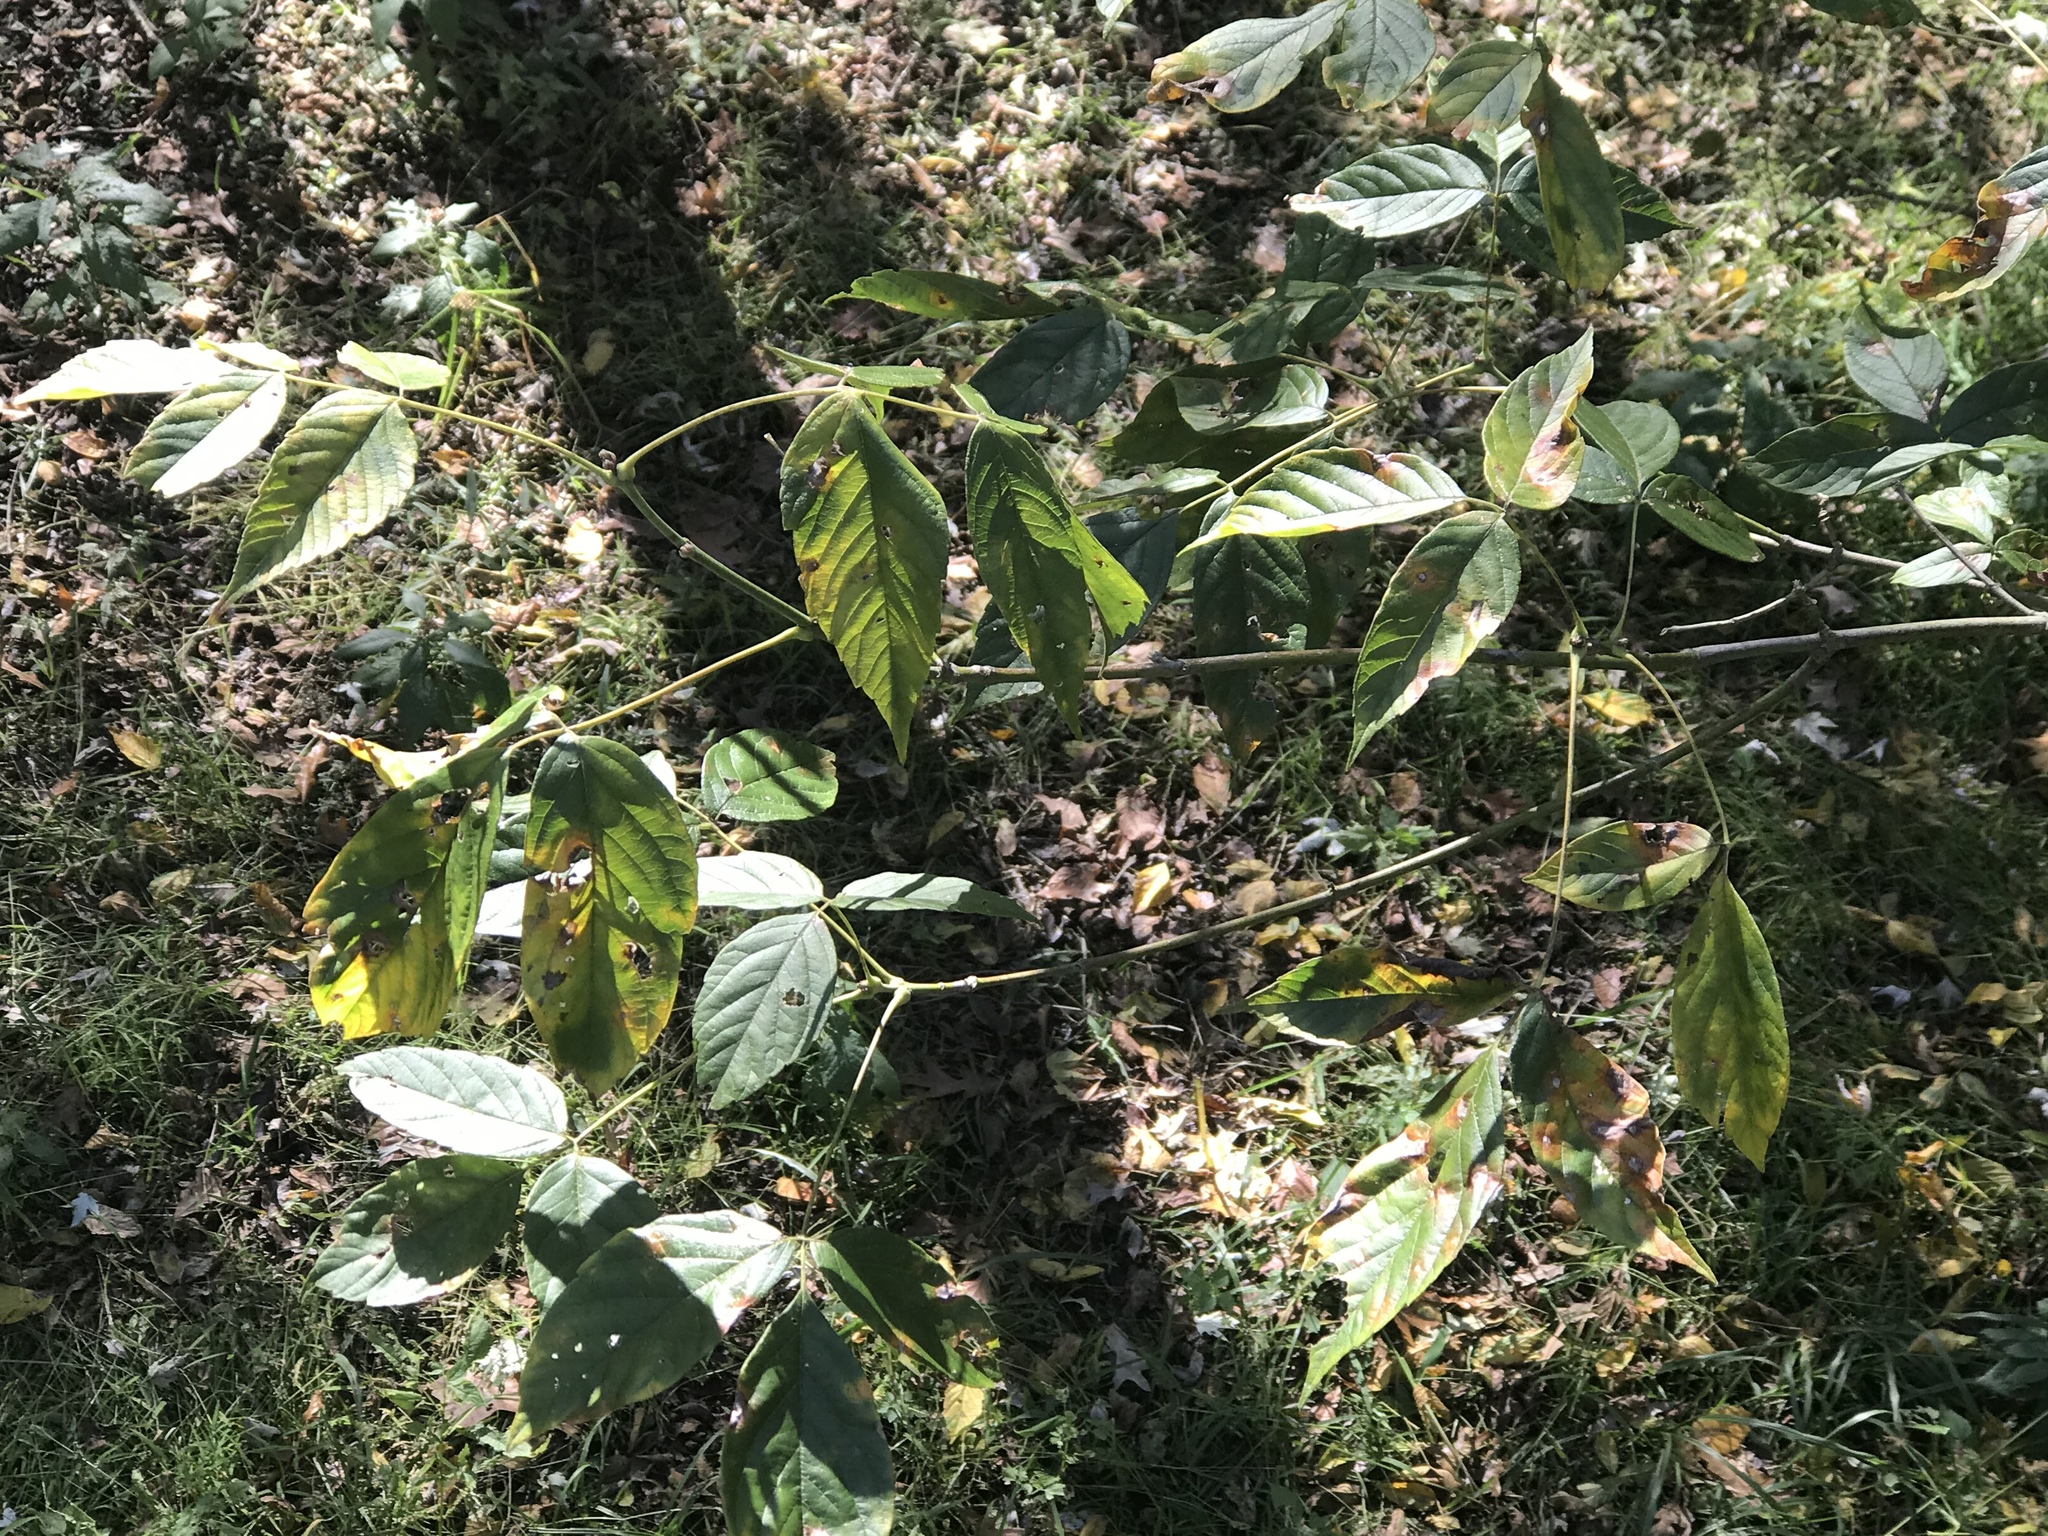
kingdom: Plantae
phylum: Tracheophyta
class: Magnoliopsida
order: Sapindales
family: Sapindaceae
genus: Acer
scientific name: Acer negundo
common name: Ashleaf maple
